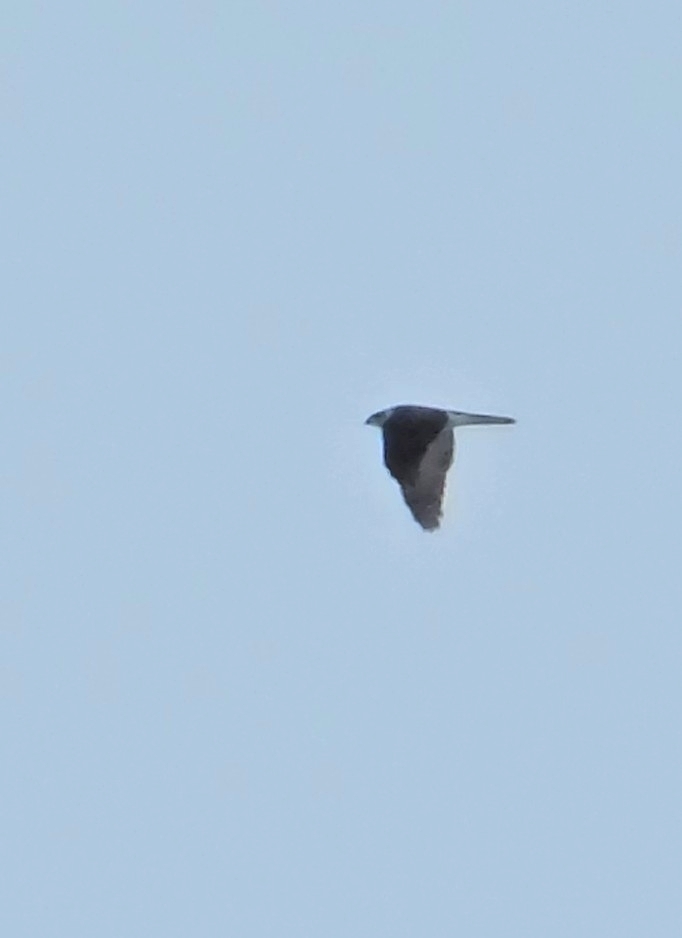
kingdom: Animalia
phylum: Chordata
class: Aves
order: Accipitriformes
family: Accipitridae
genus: Accipiter
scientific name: Accipiter gentilis
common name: Northern goshawk
